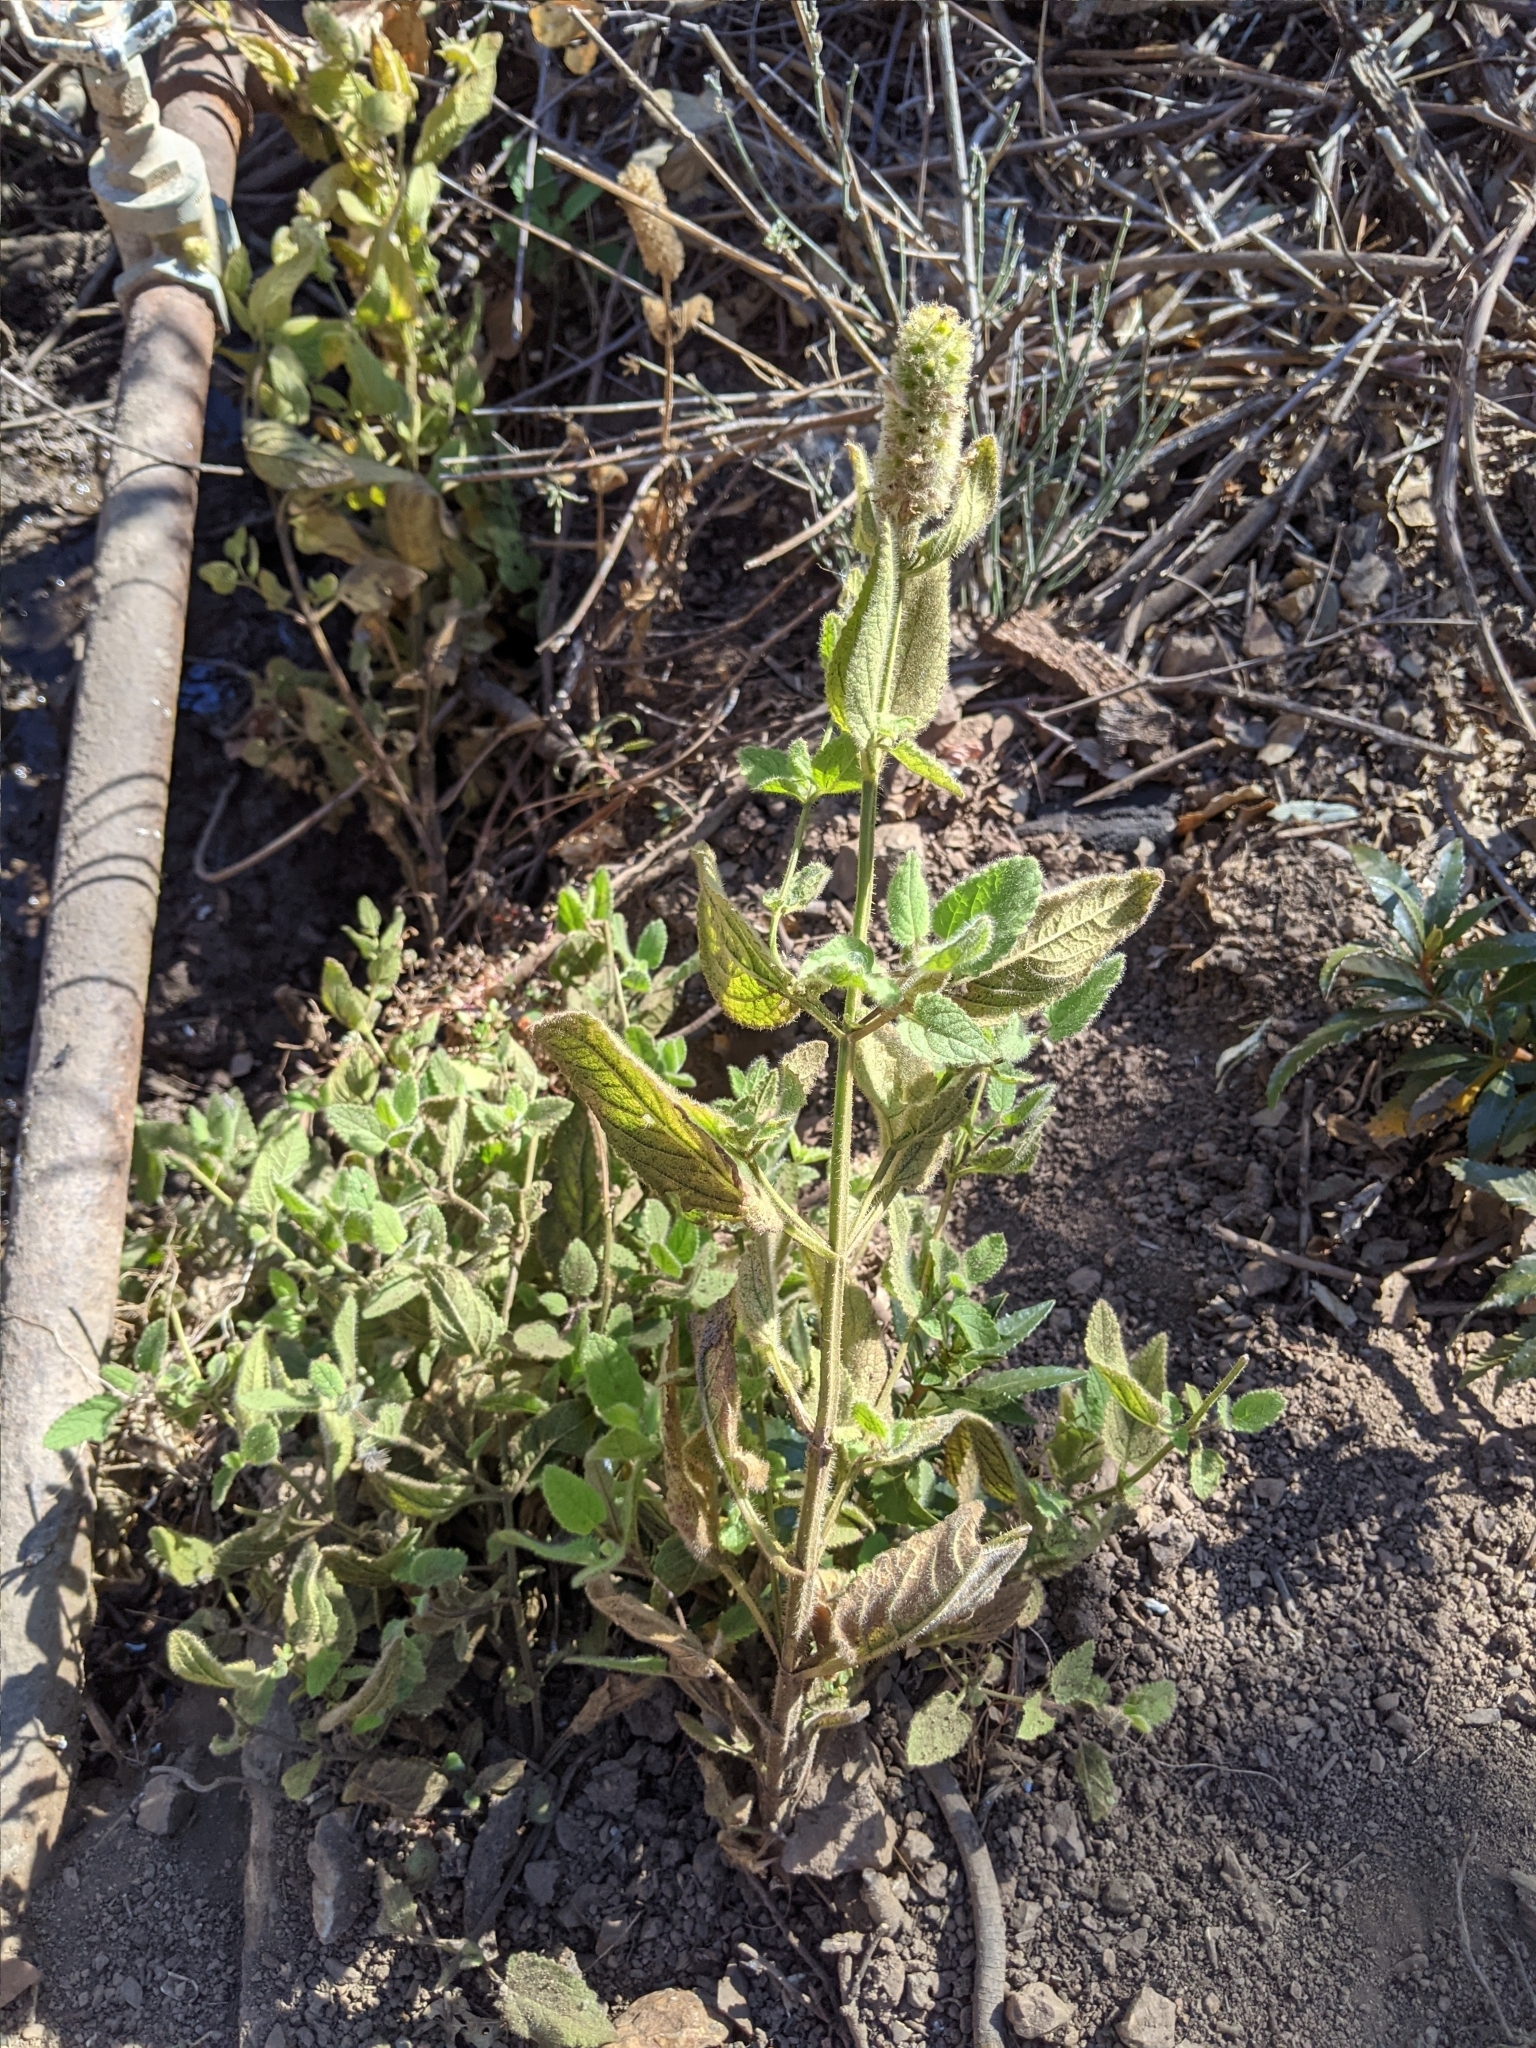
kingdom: Plantae
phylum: Tracheophyta
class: Magnoliopsida
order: Lamiales
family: Lamiaceae
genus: Stachys
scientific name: Stachys pycnantha
